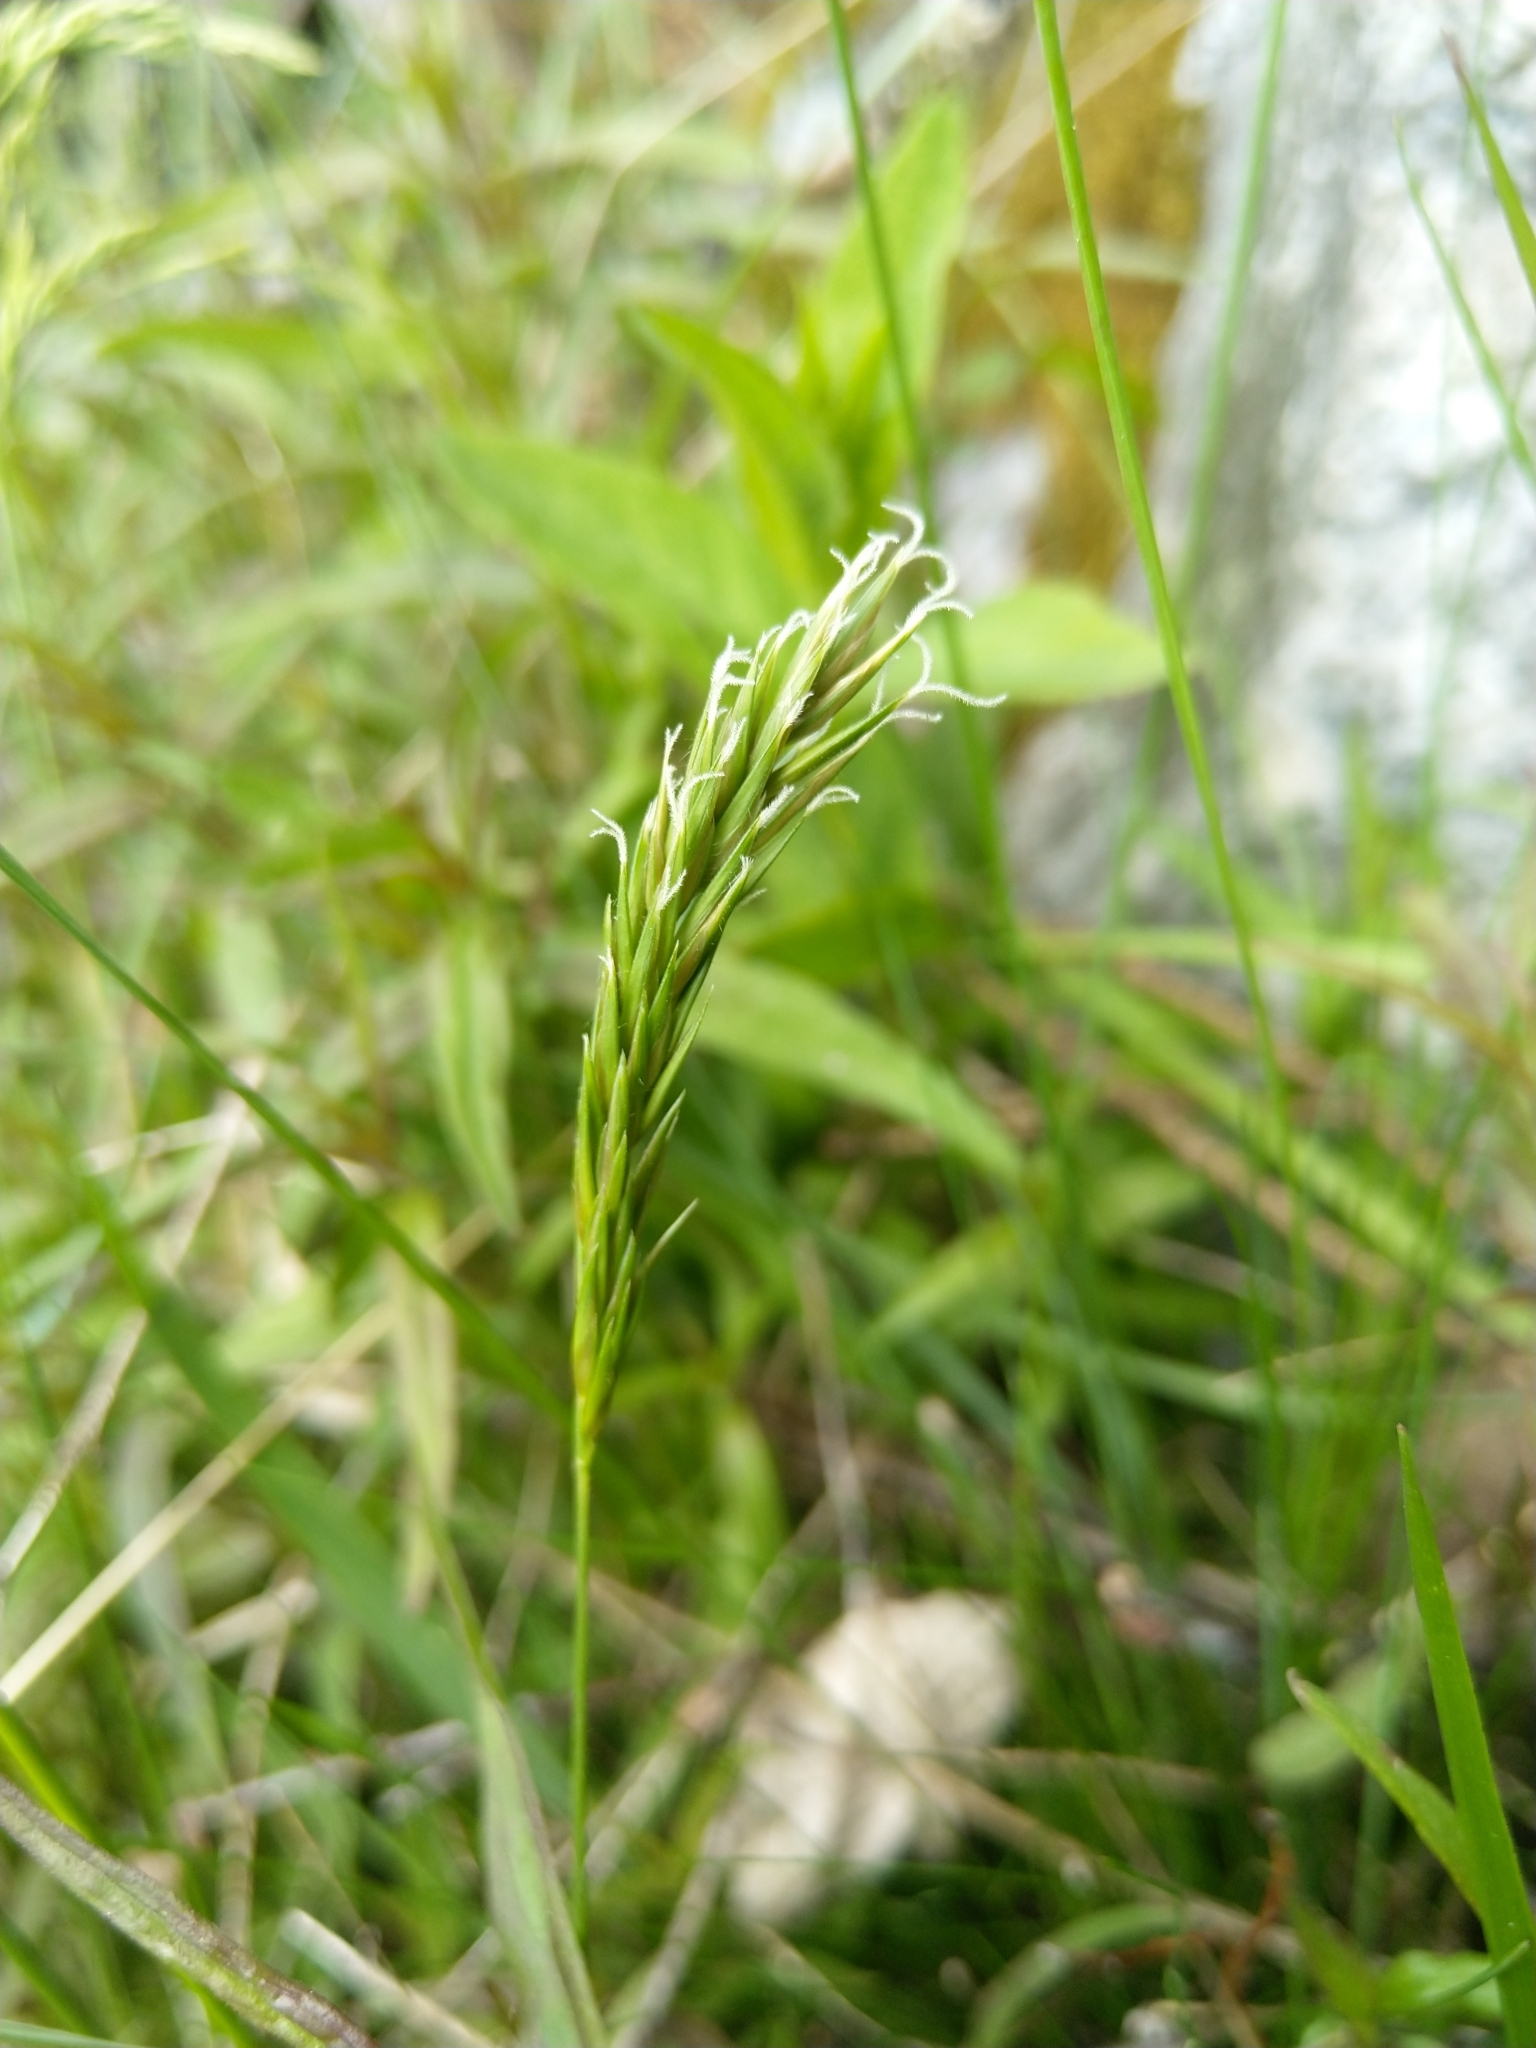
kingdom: Plantae
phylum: Tracheophyta
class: Liliopsida
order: Poales
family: Poaceae
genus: Anthoxanthum
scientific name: Anthoxanthum odoratum
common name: Sweet vernalgrass
